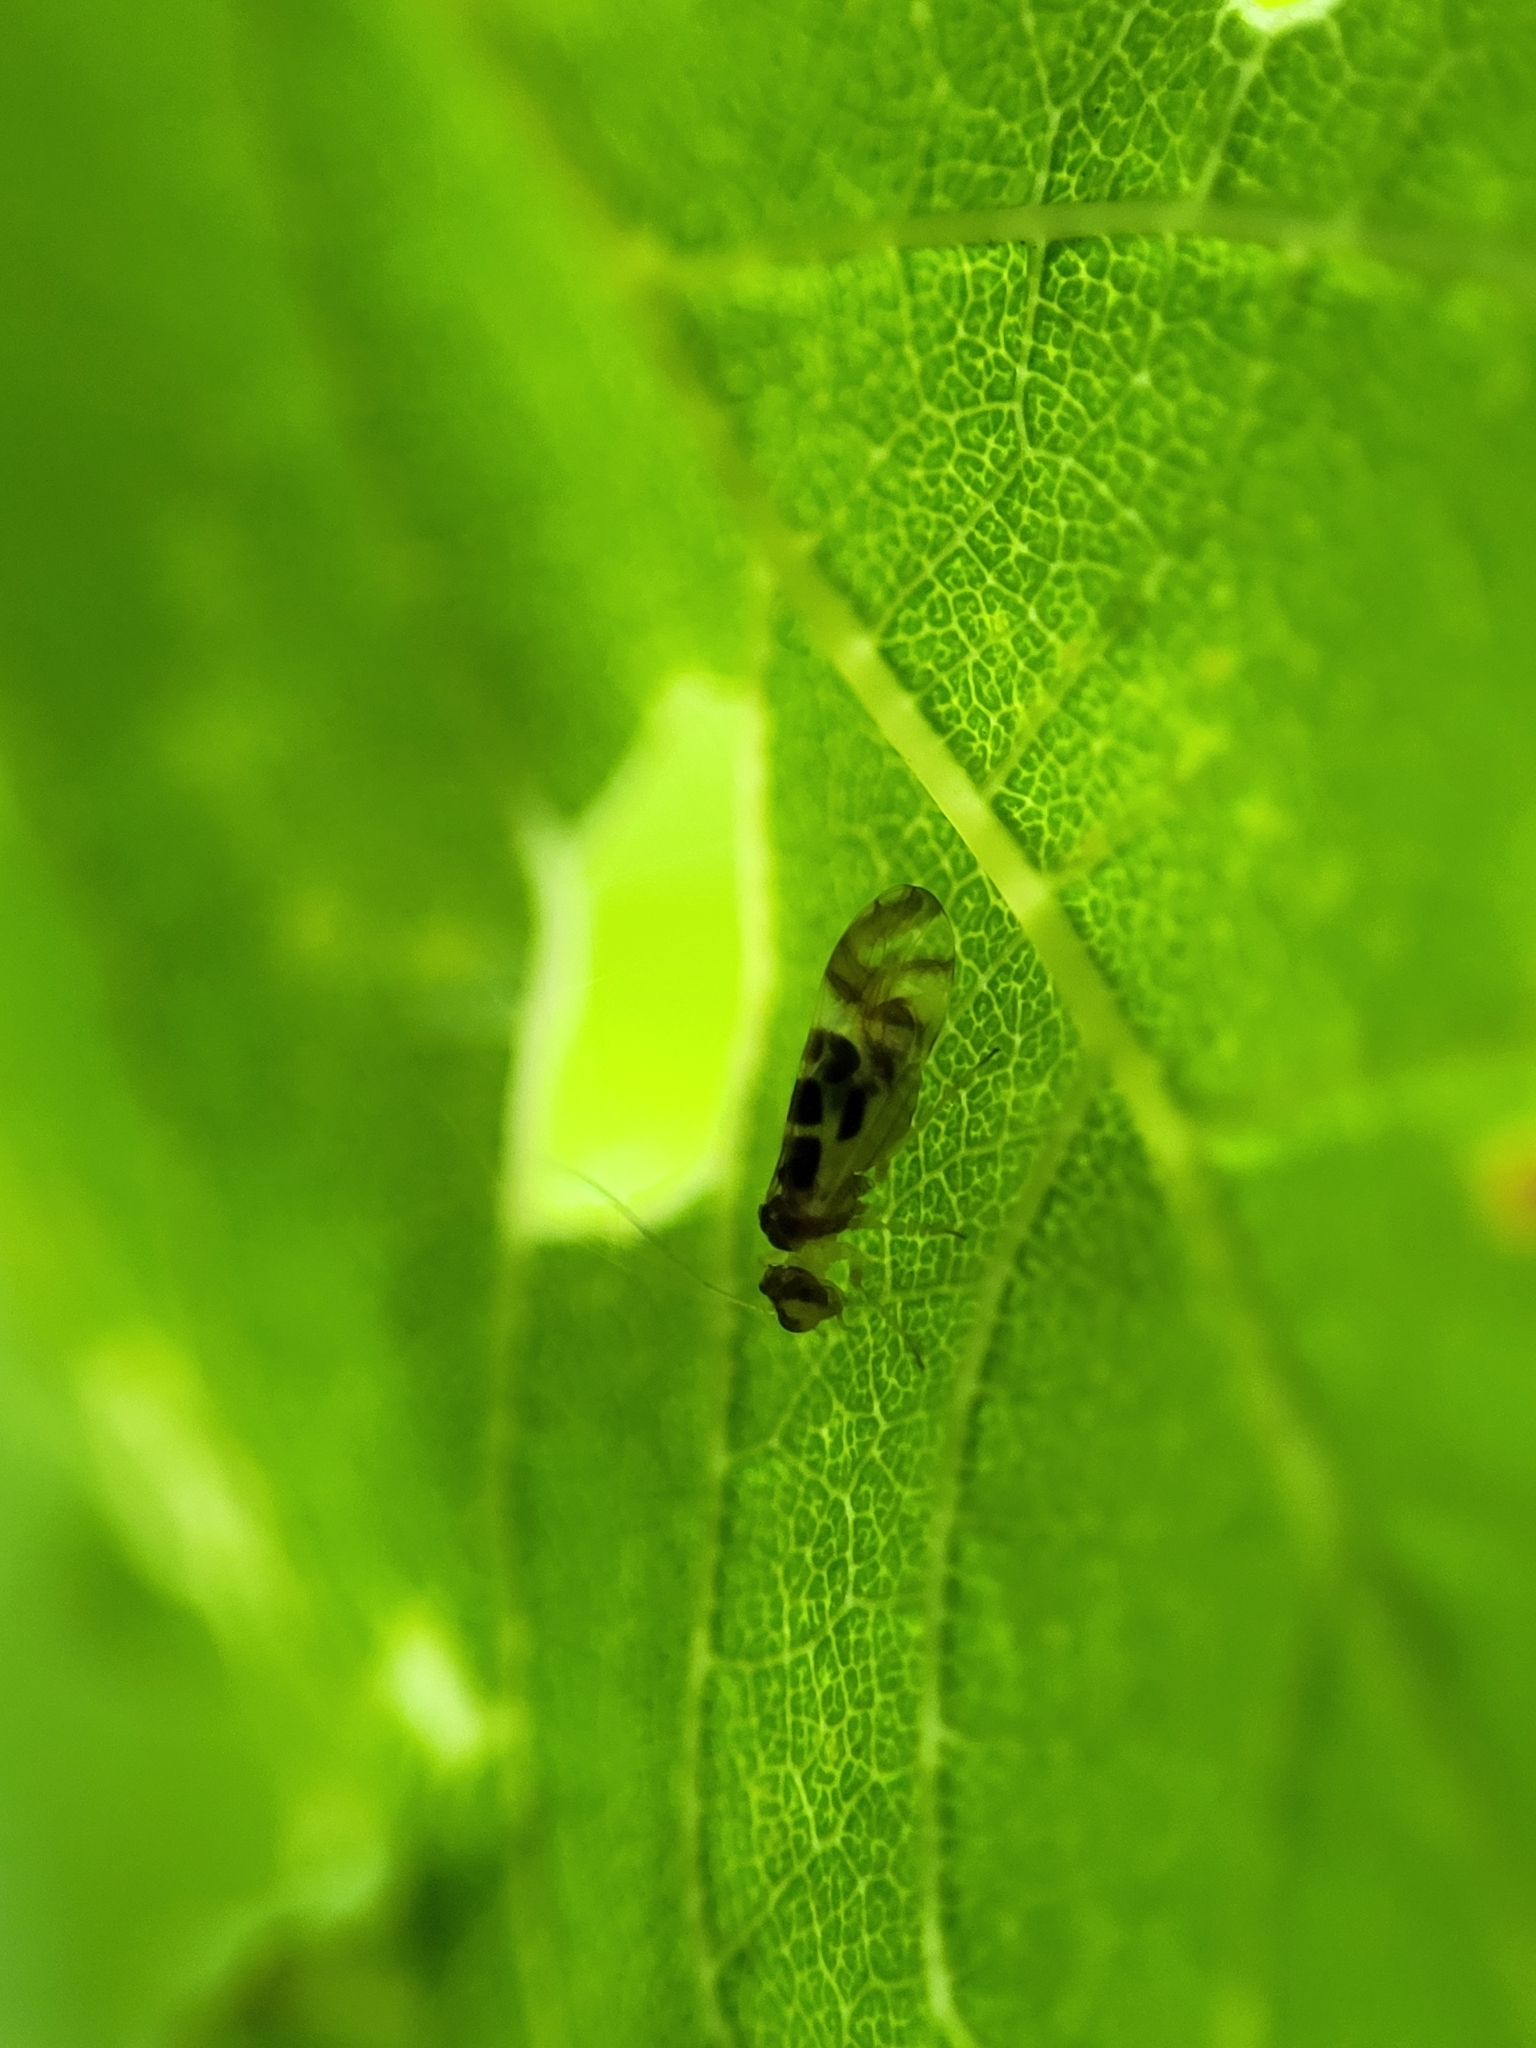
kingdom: Animalia
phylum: Arthropoda
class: Insecta
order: Psocodea
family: Stenopsocidae
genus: Graphopsocus
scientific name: Graphopsocus cruciatus
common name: Lizard bark louse
